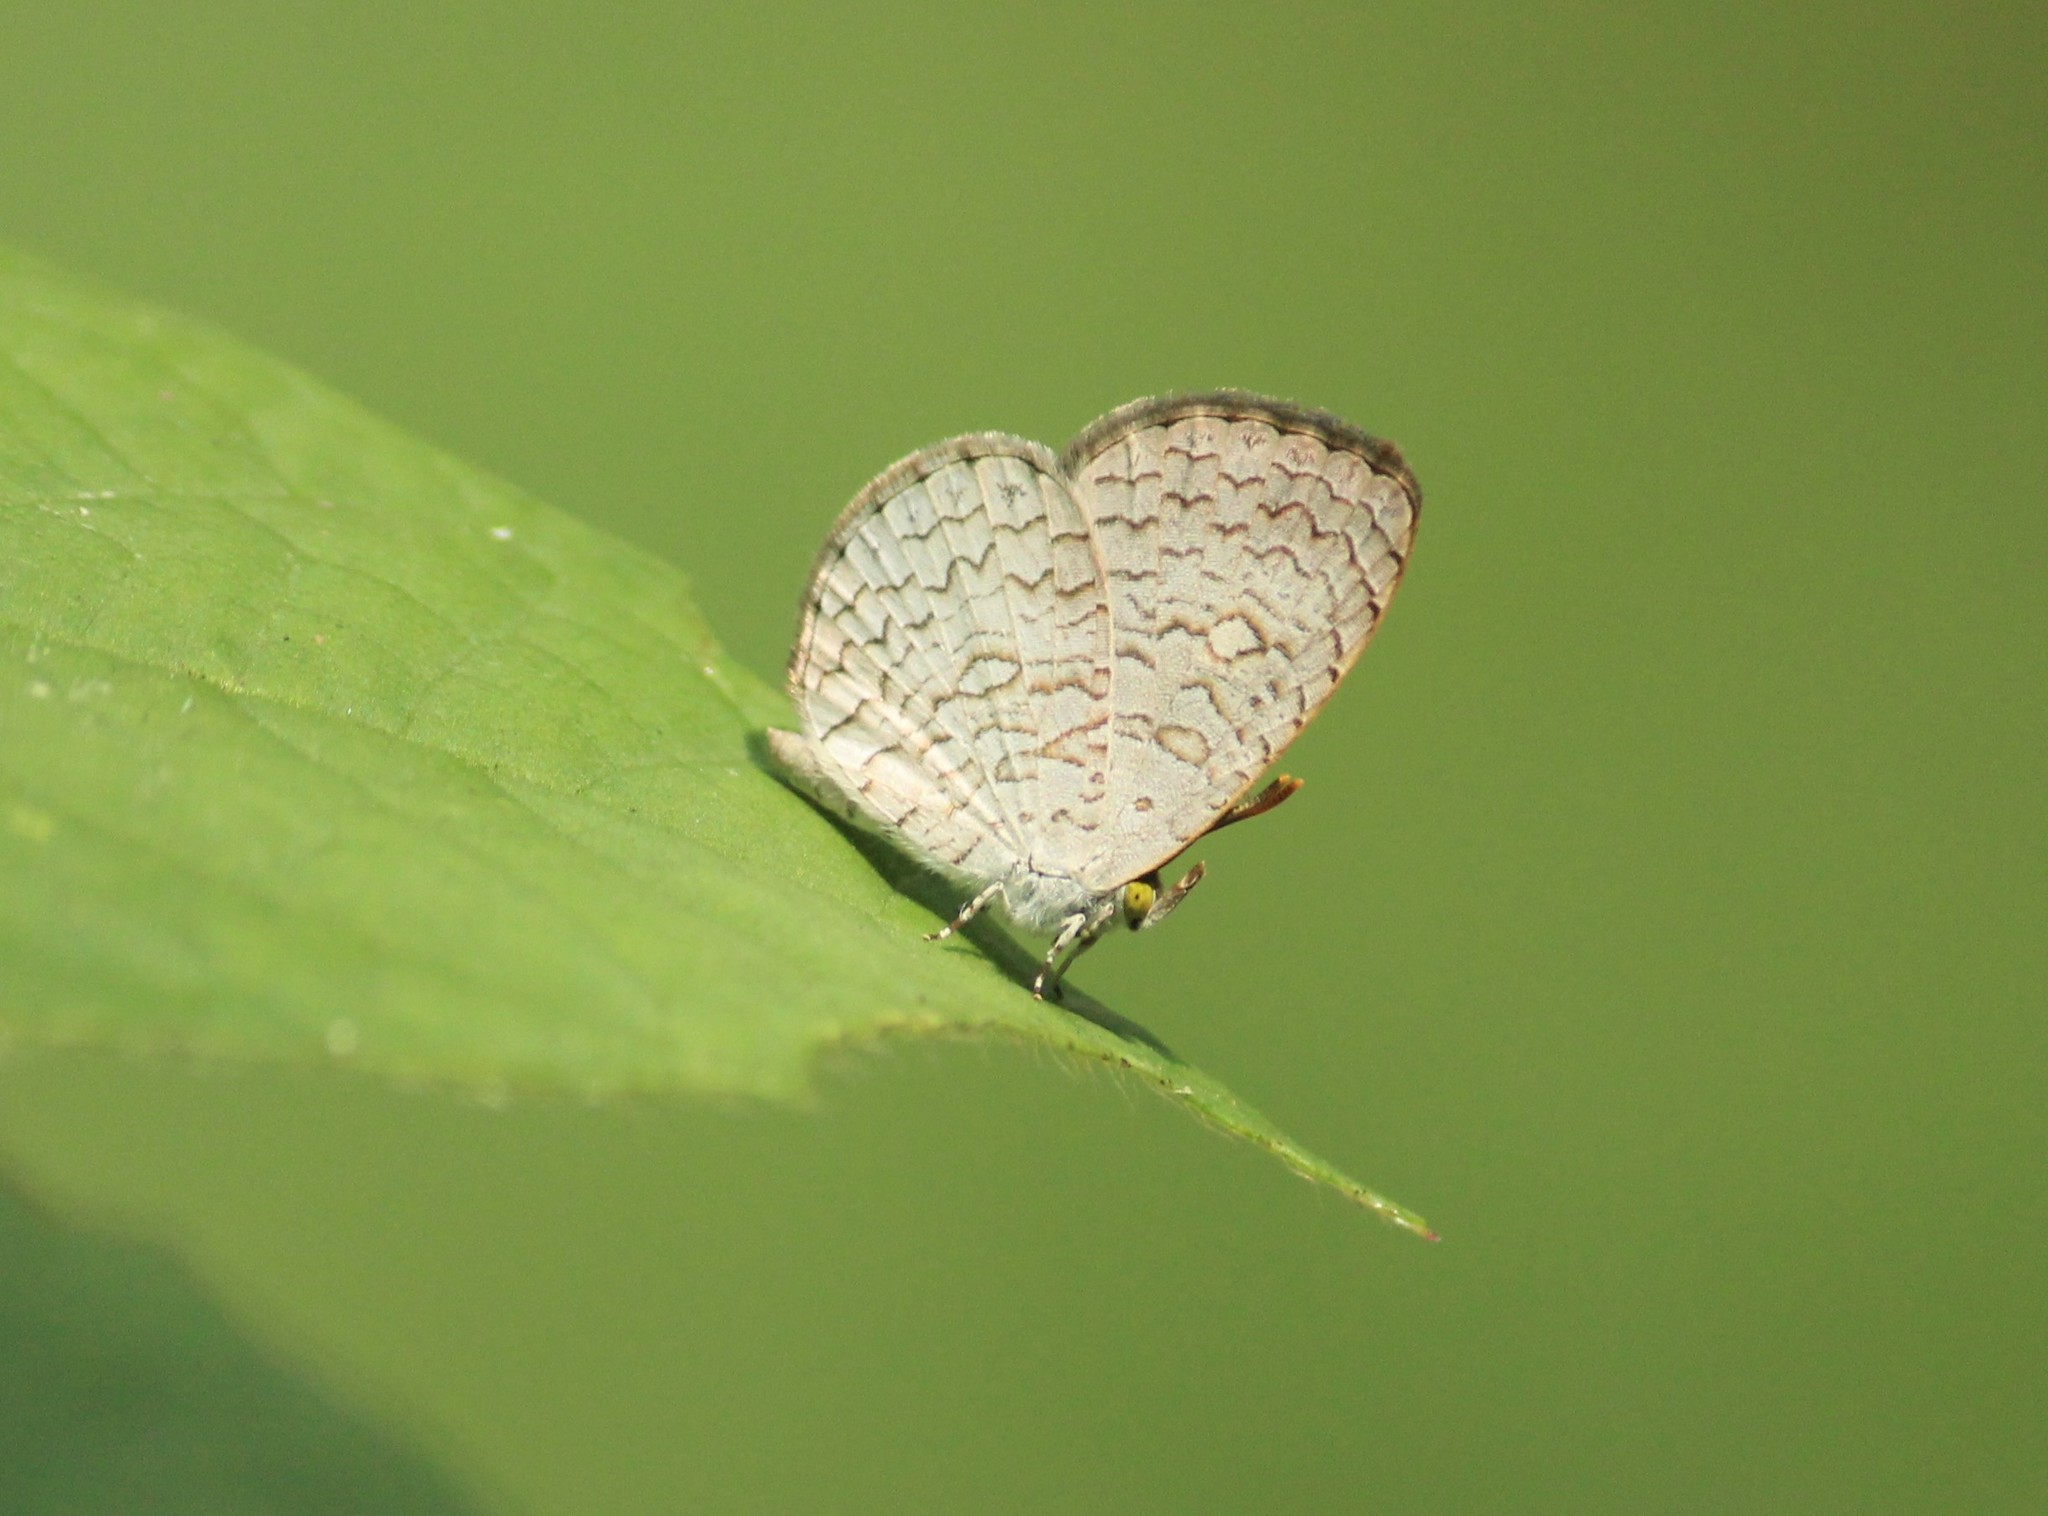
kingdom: Animalia
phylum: Arthropoda
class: Insecta
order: Lepidoptera
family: Lycaenidae
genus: Spalgis
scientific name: Spalgis epius
